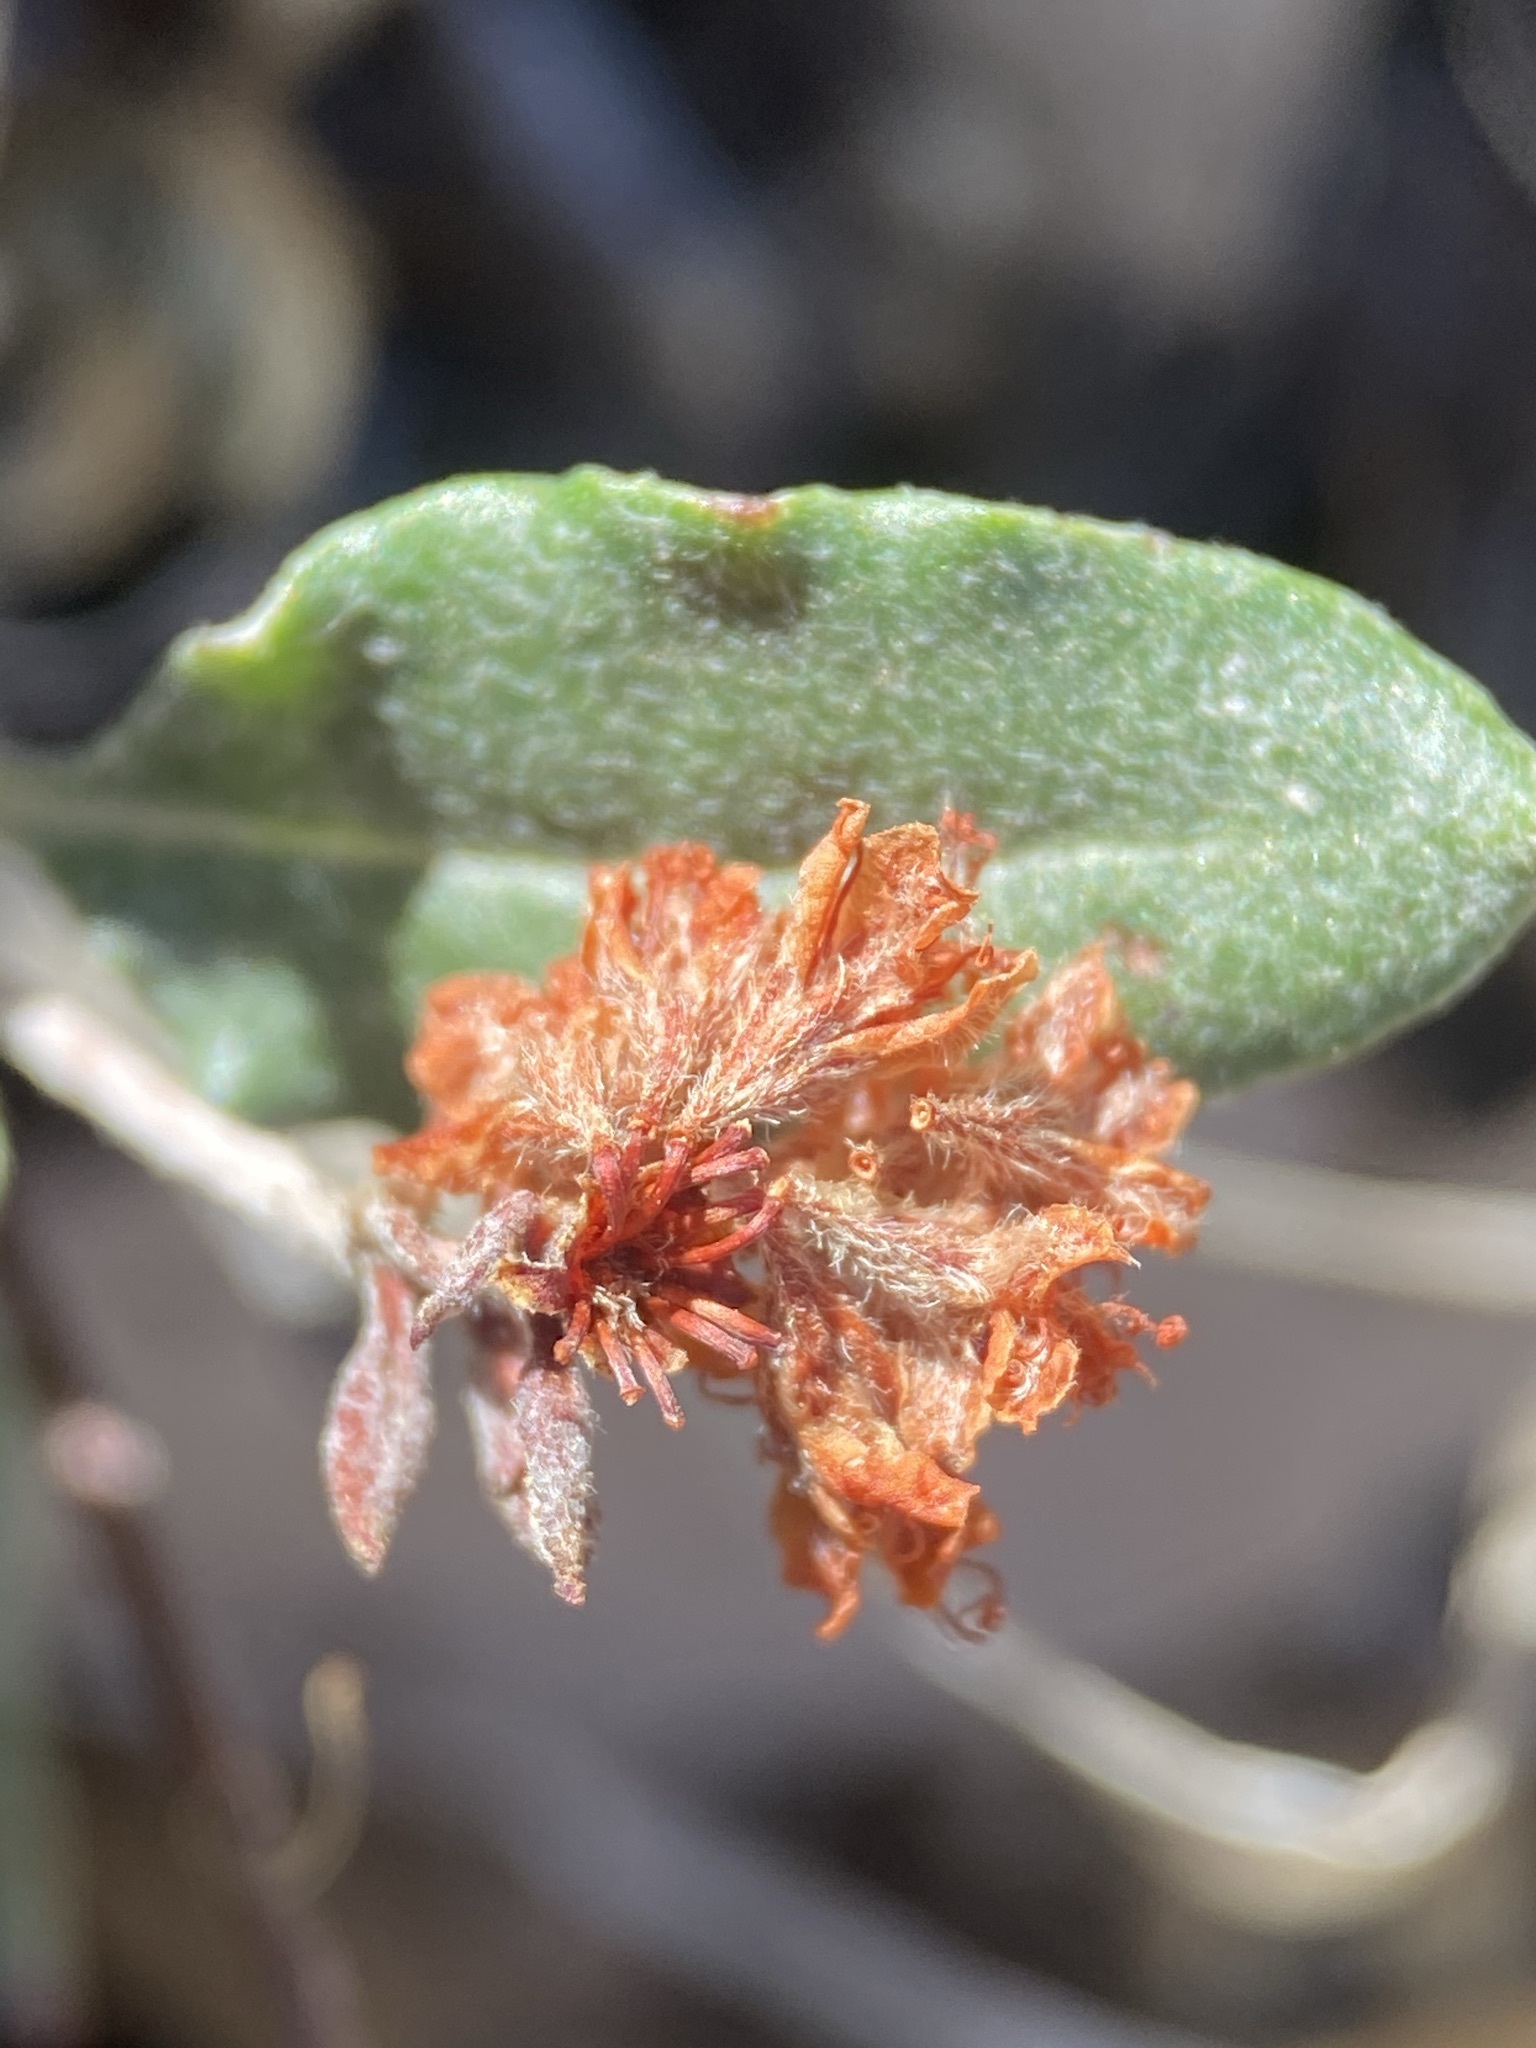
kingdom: Plantae
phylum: Tracheophyta
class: Magnoliopsida
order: Caryophyllales
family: Polygonaceae
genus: Eriogonum
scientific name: Eriogonum jamesii
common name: Antelope-sage
